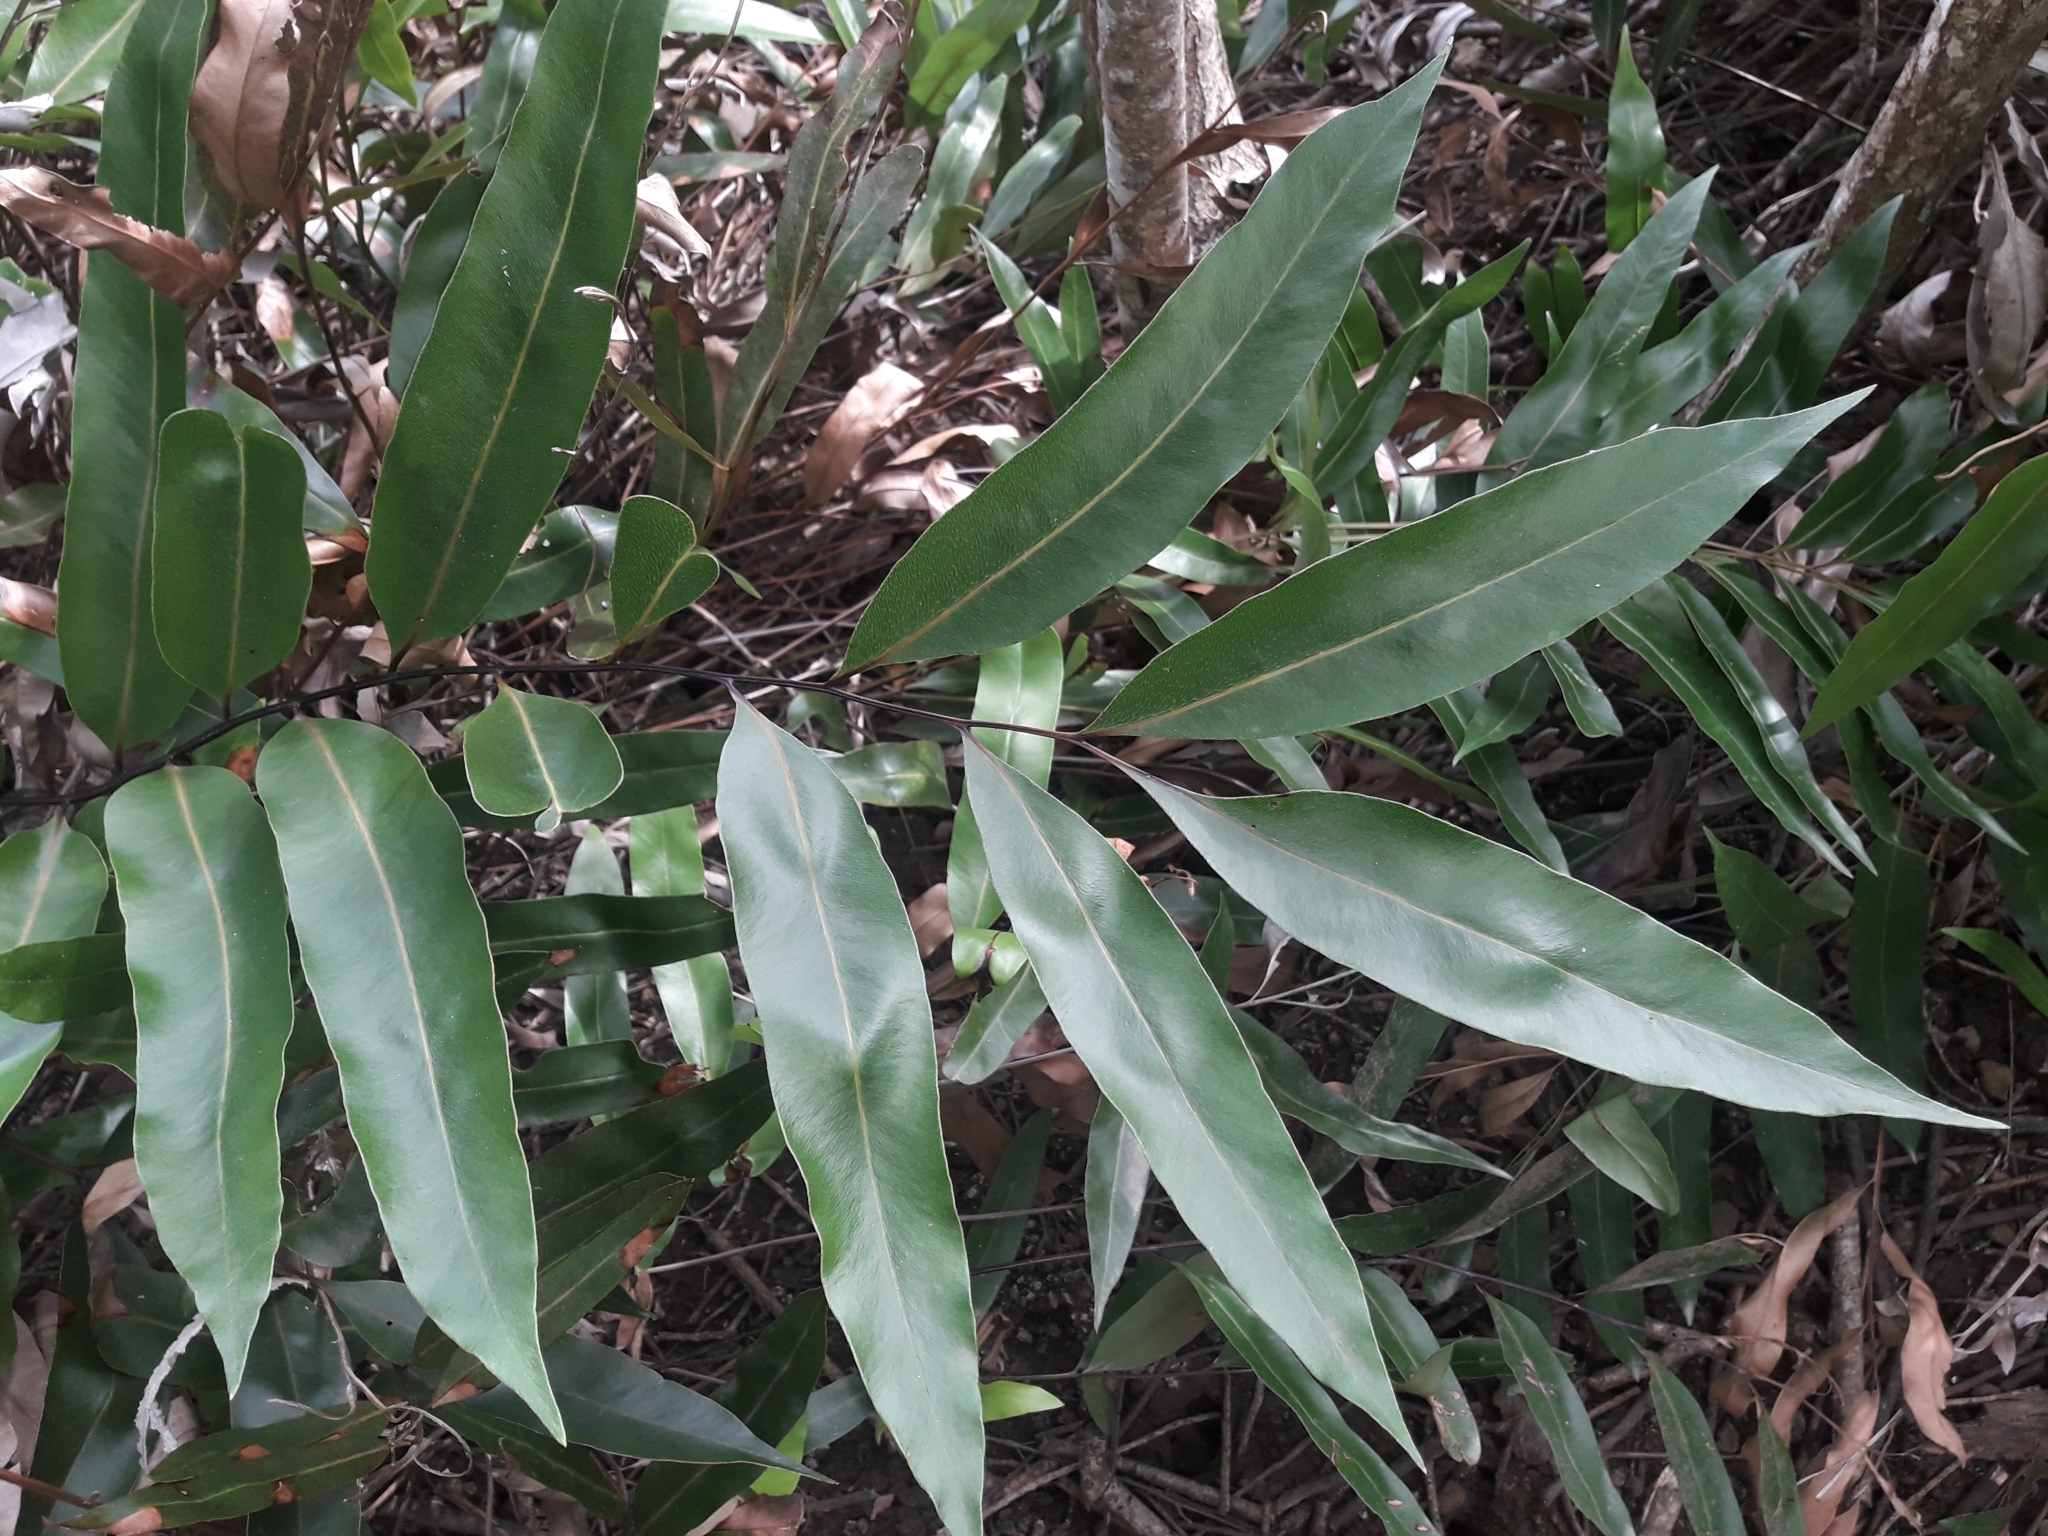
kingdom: Plantae
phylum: Tracheophyta
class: Polypodiopsida
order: Polypodiales
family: Pteridaceae
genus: Acrostichum
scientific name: Acrostichum speciosum
